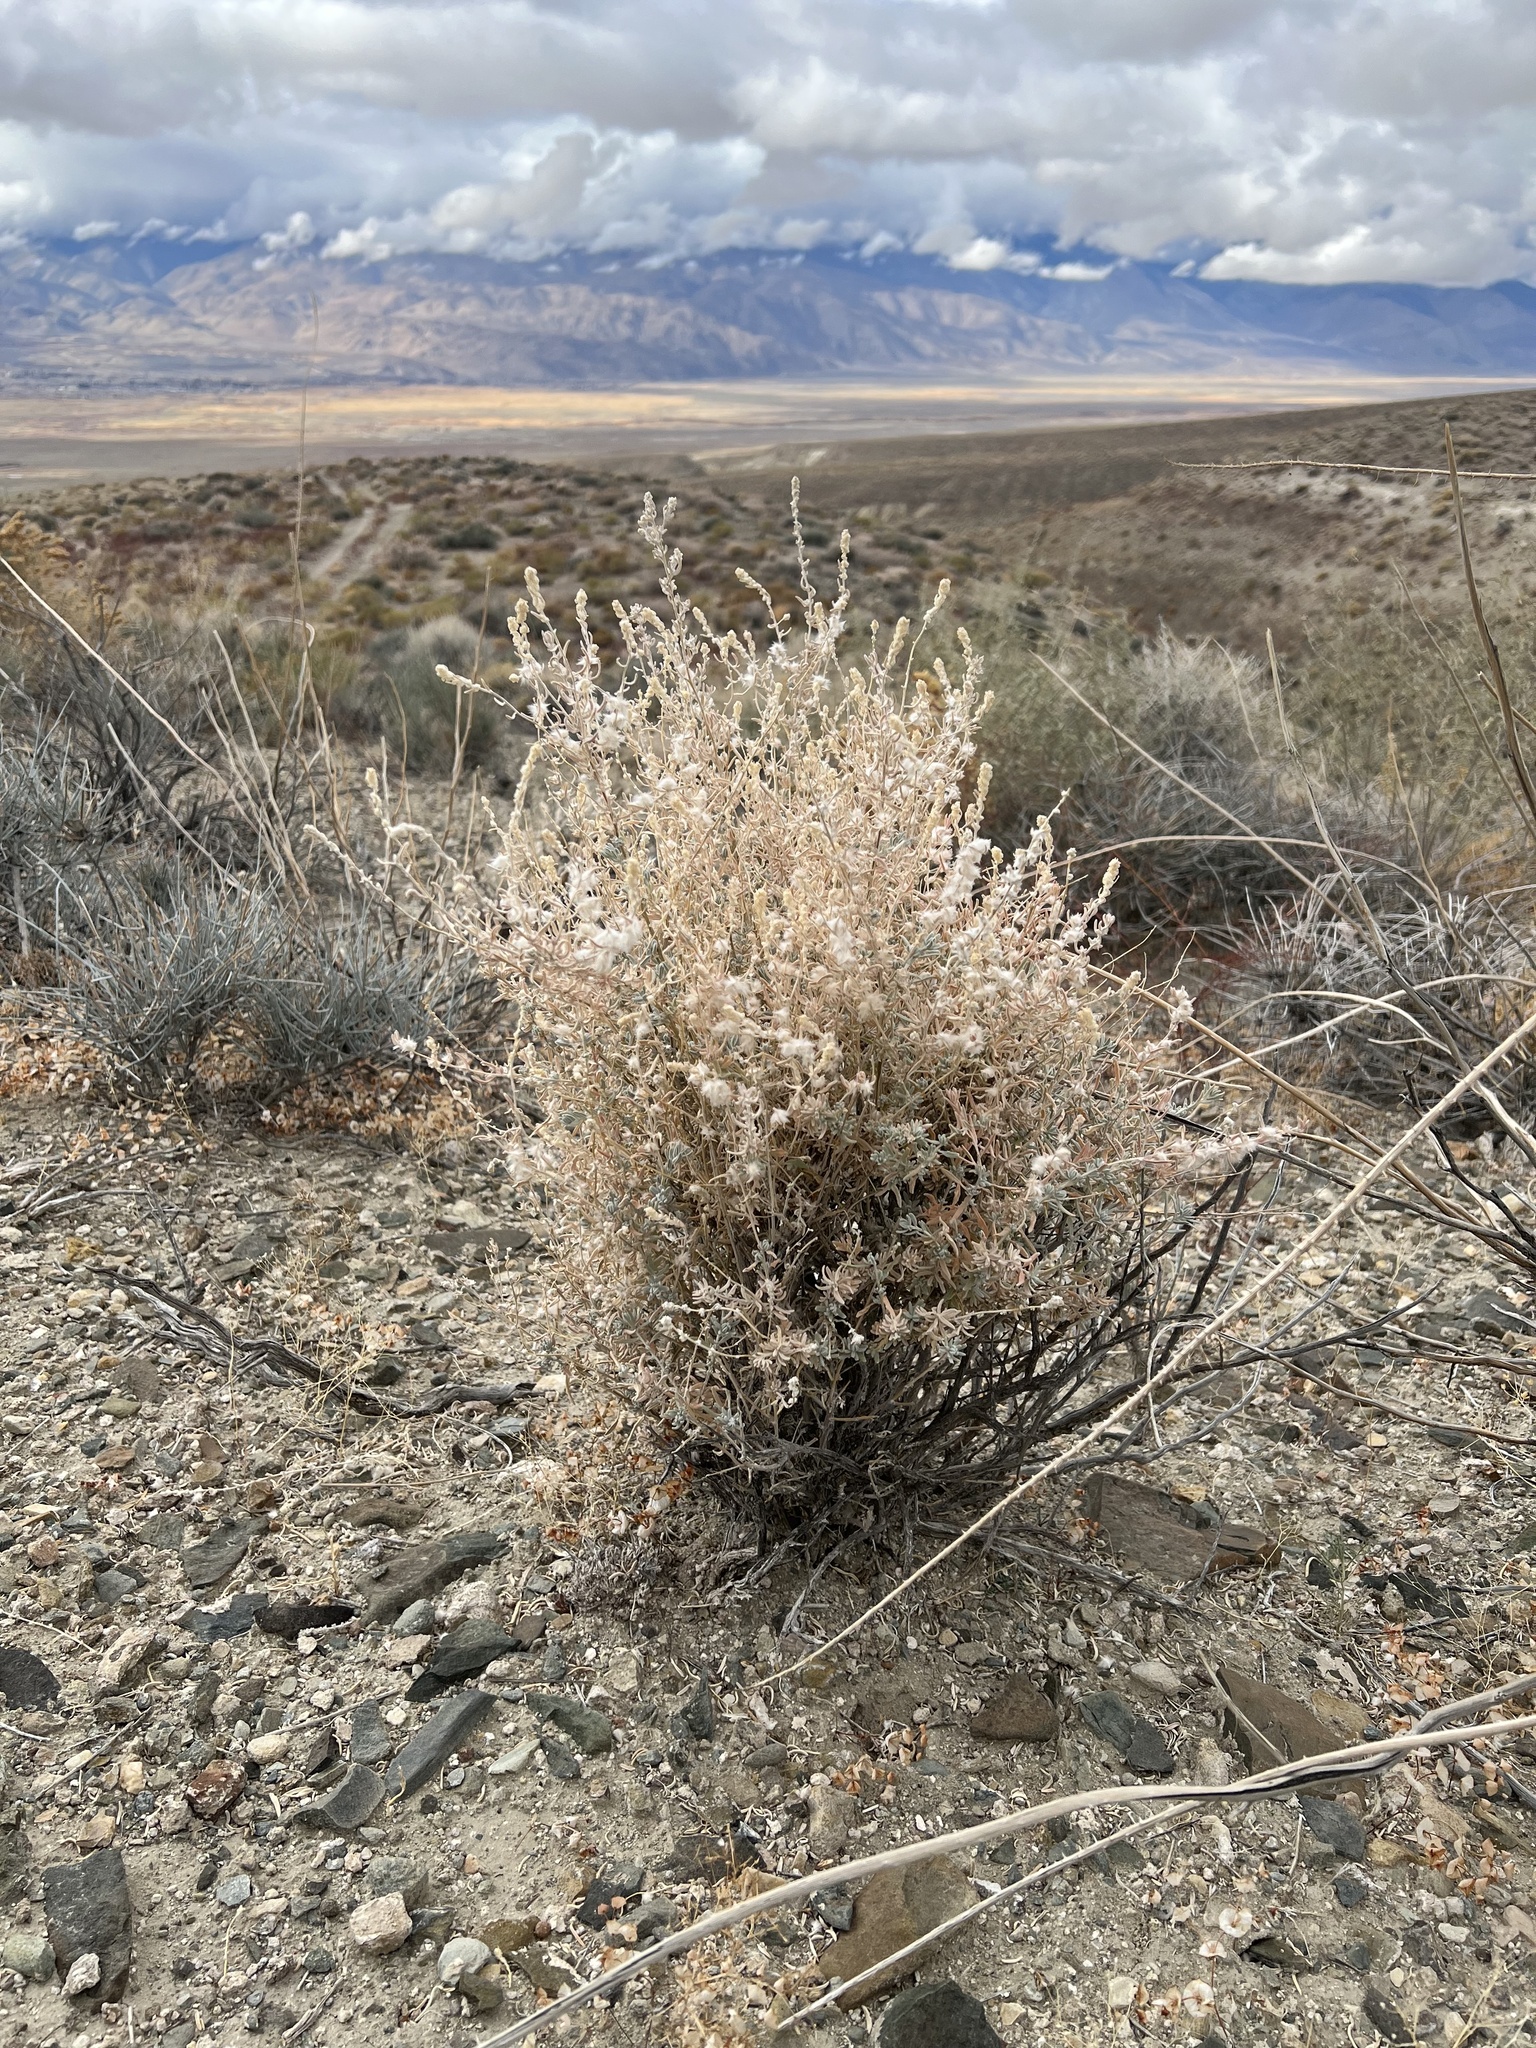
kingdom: Plantae
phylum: Tracheophyta
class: Magnoliopsida
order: Caryophyllales
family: Amaranthaceae
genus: Krascheninnikovia
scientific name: Krascheninnikovia lanata
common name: Winterfat
